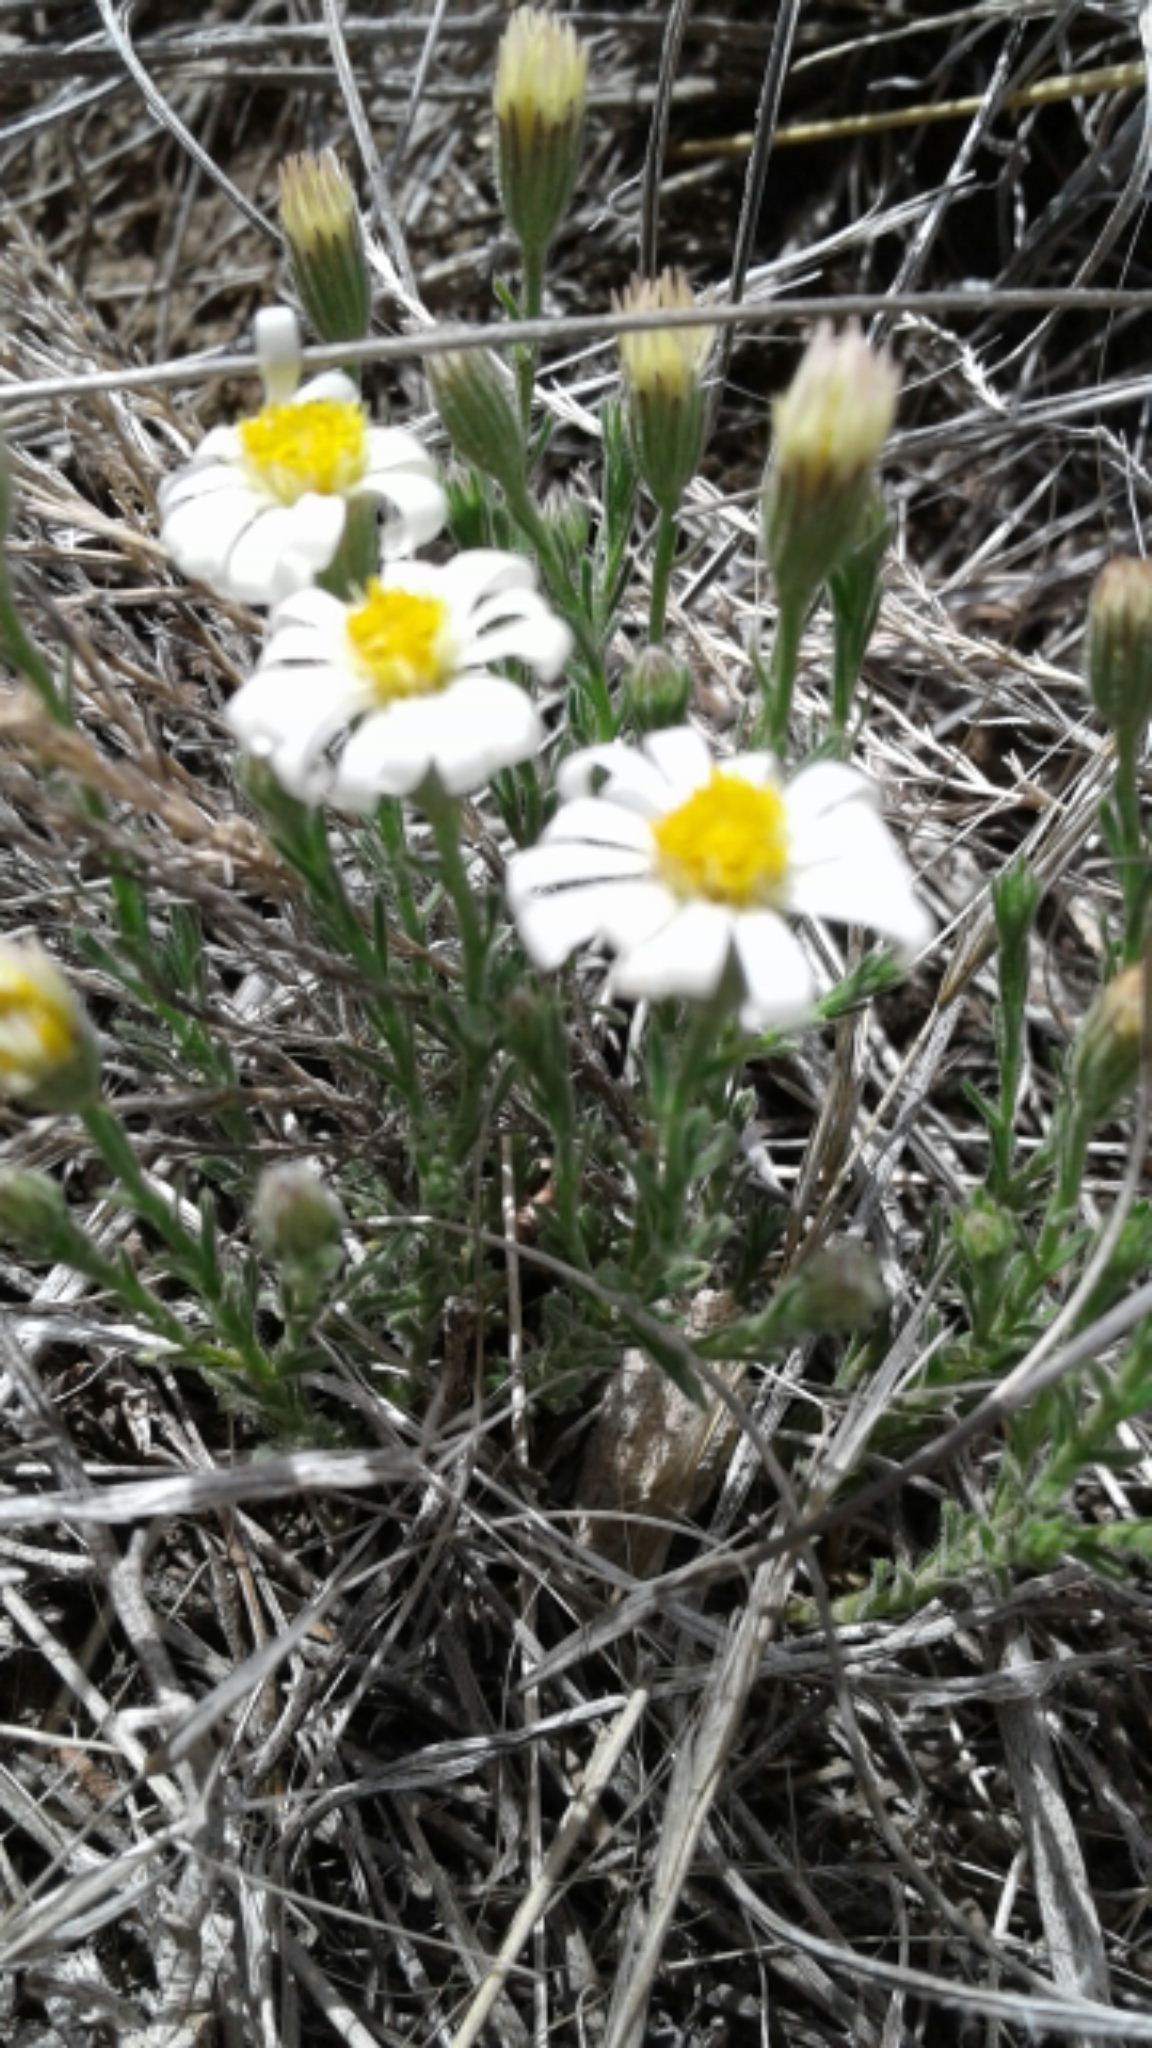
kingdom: Plantae
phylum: Tracheophyta
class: Magnoliopsida
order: Asterales
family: Asteraceae
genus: Chaetopappa
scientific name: Chaetopappa ericoides
